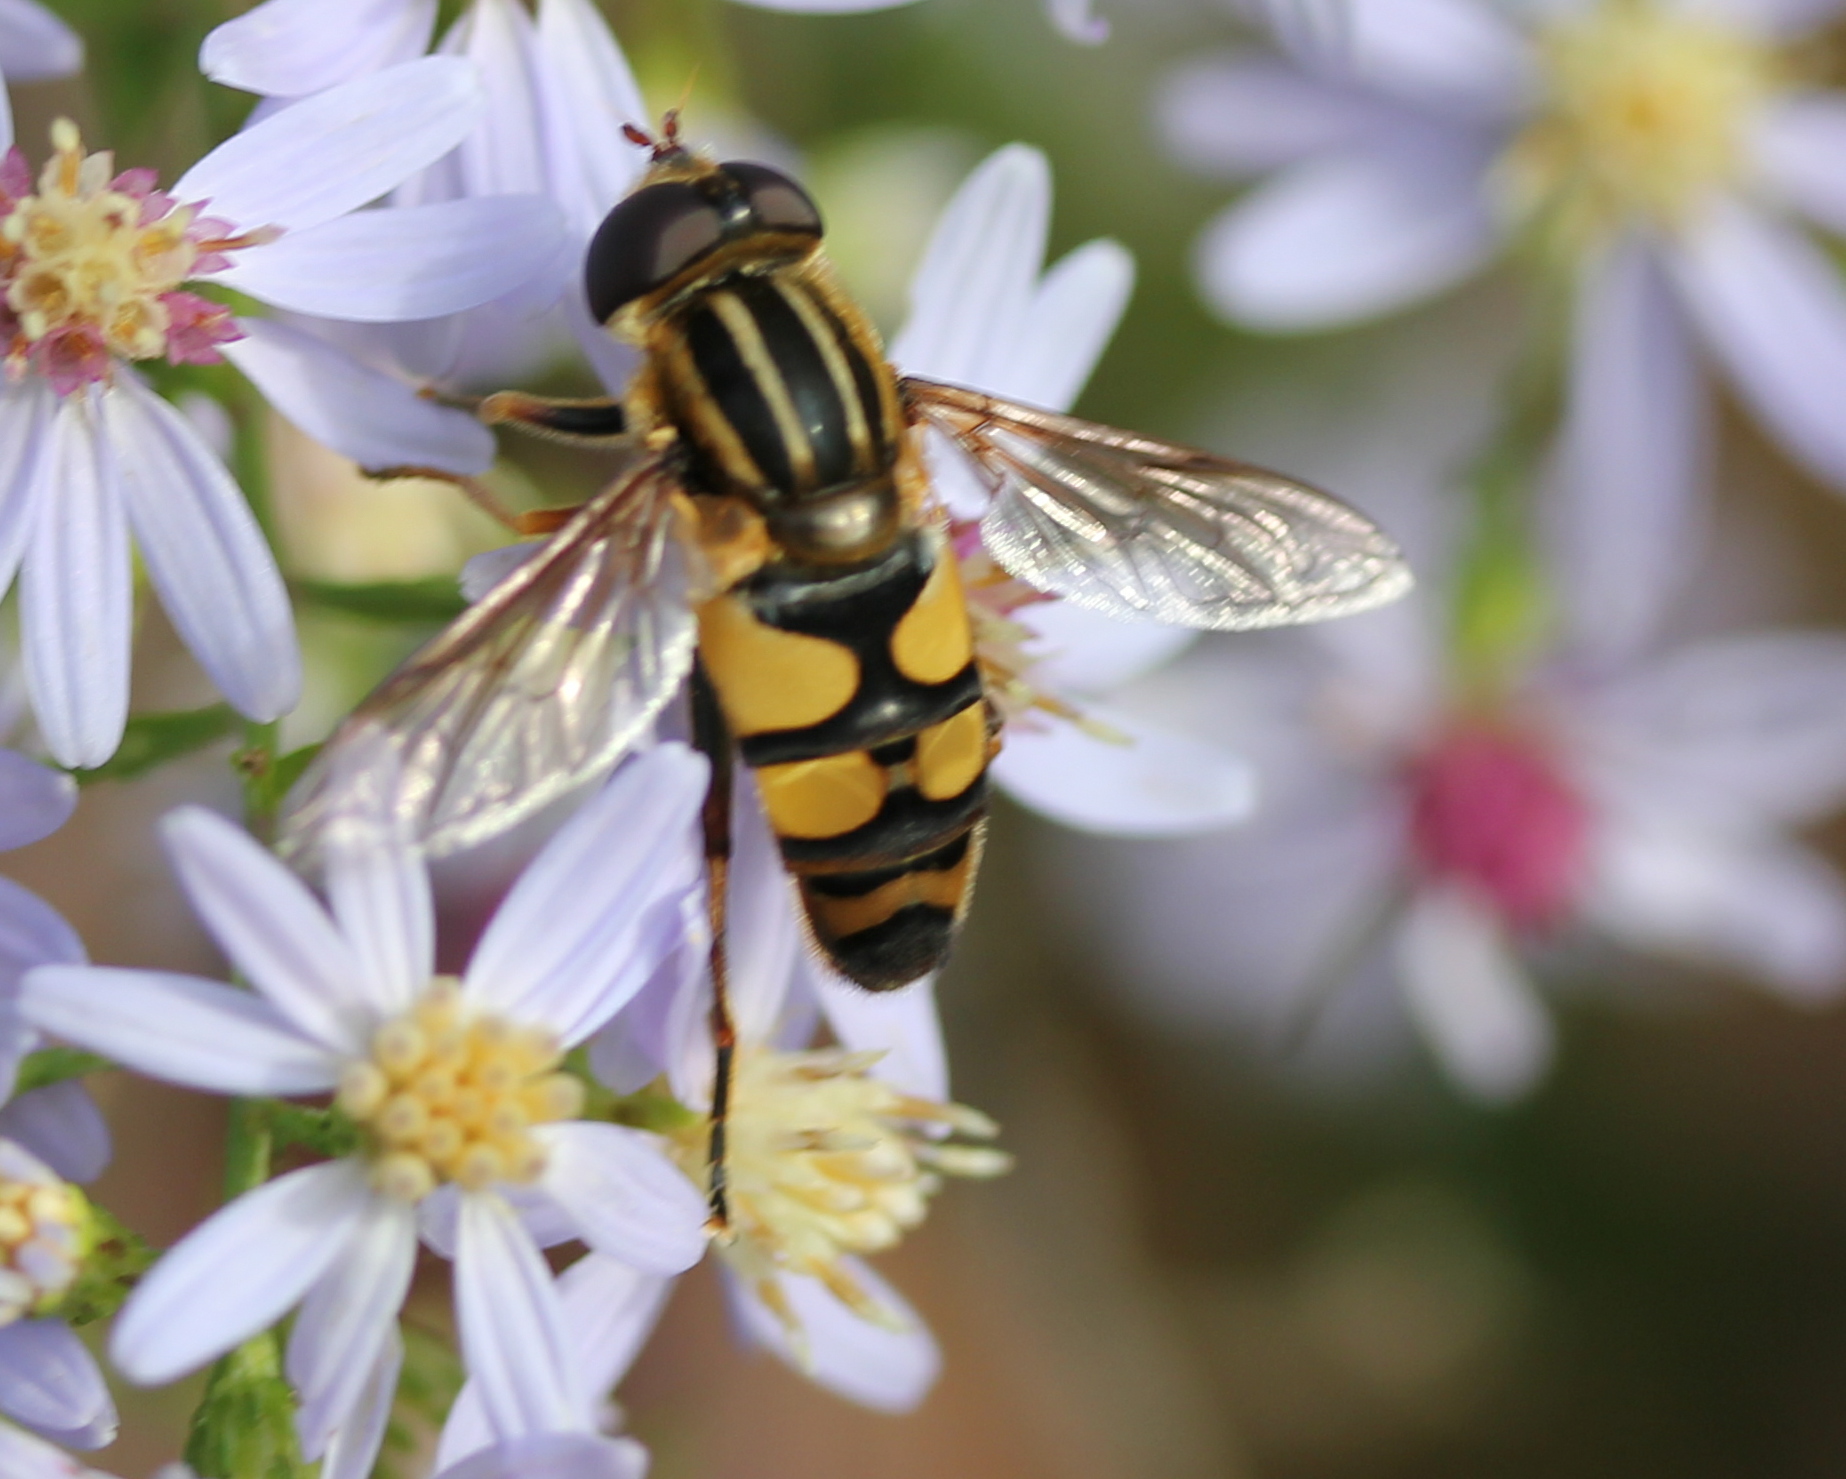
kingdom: Animalia
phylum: Arthropoda
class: Insecta
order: Diptera
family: Syrphidae
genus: Helophilus
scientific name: Helophilus fasciatus
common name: Narrow-headed marsh fly
